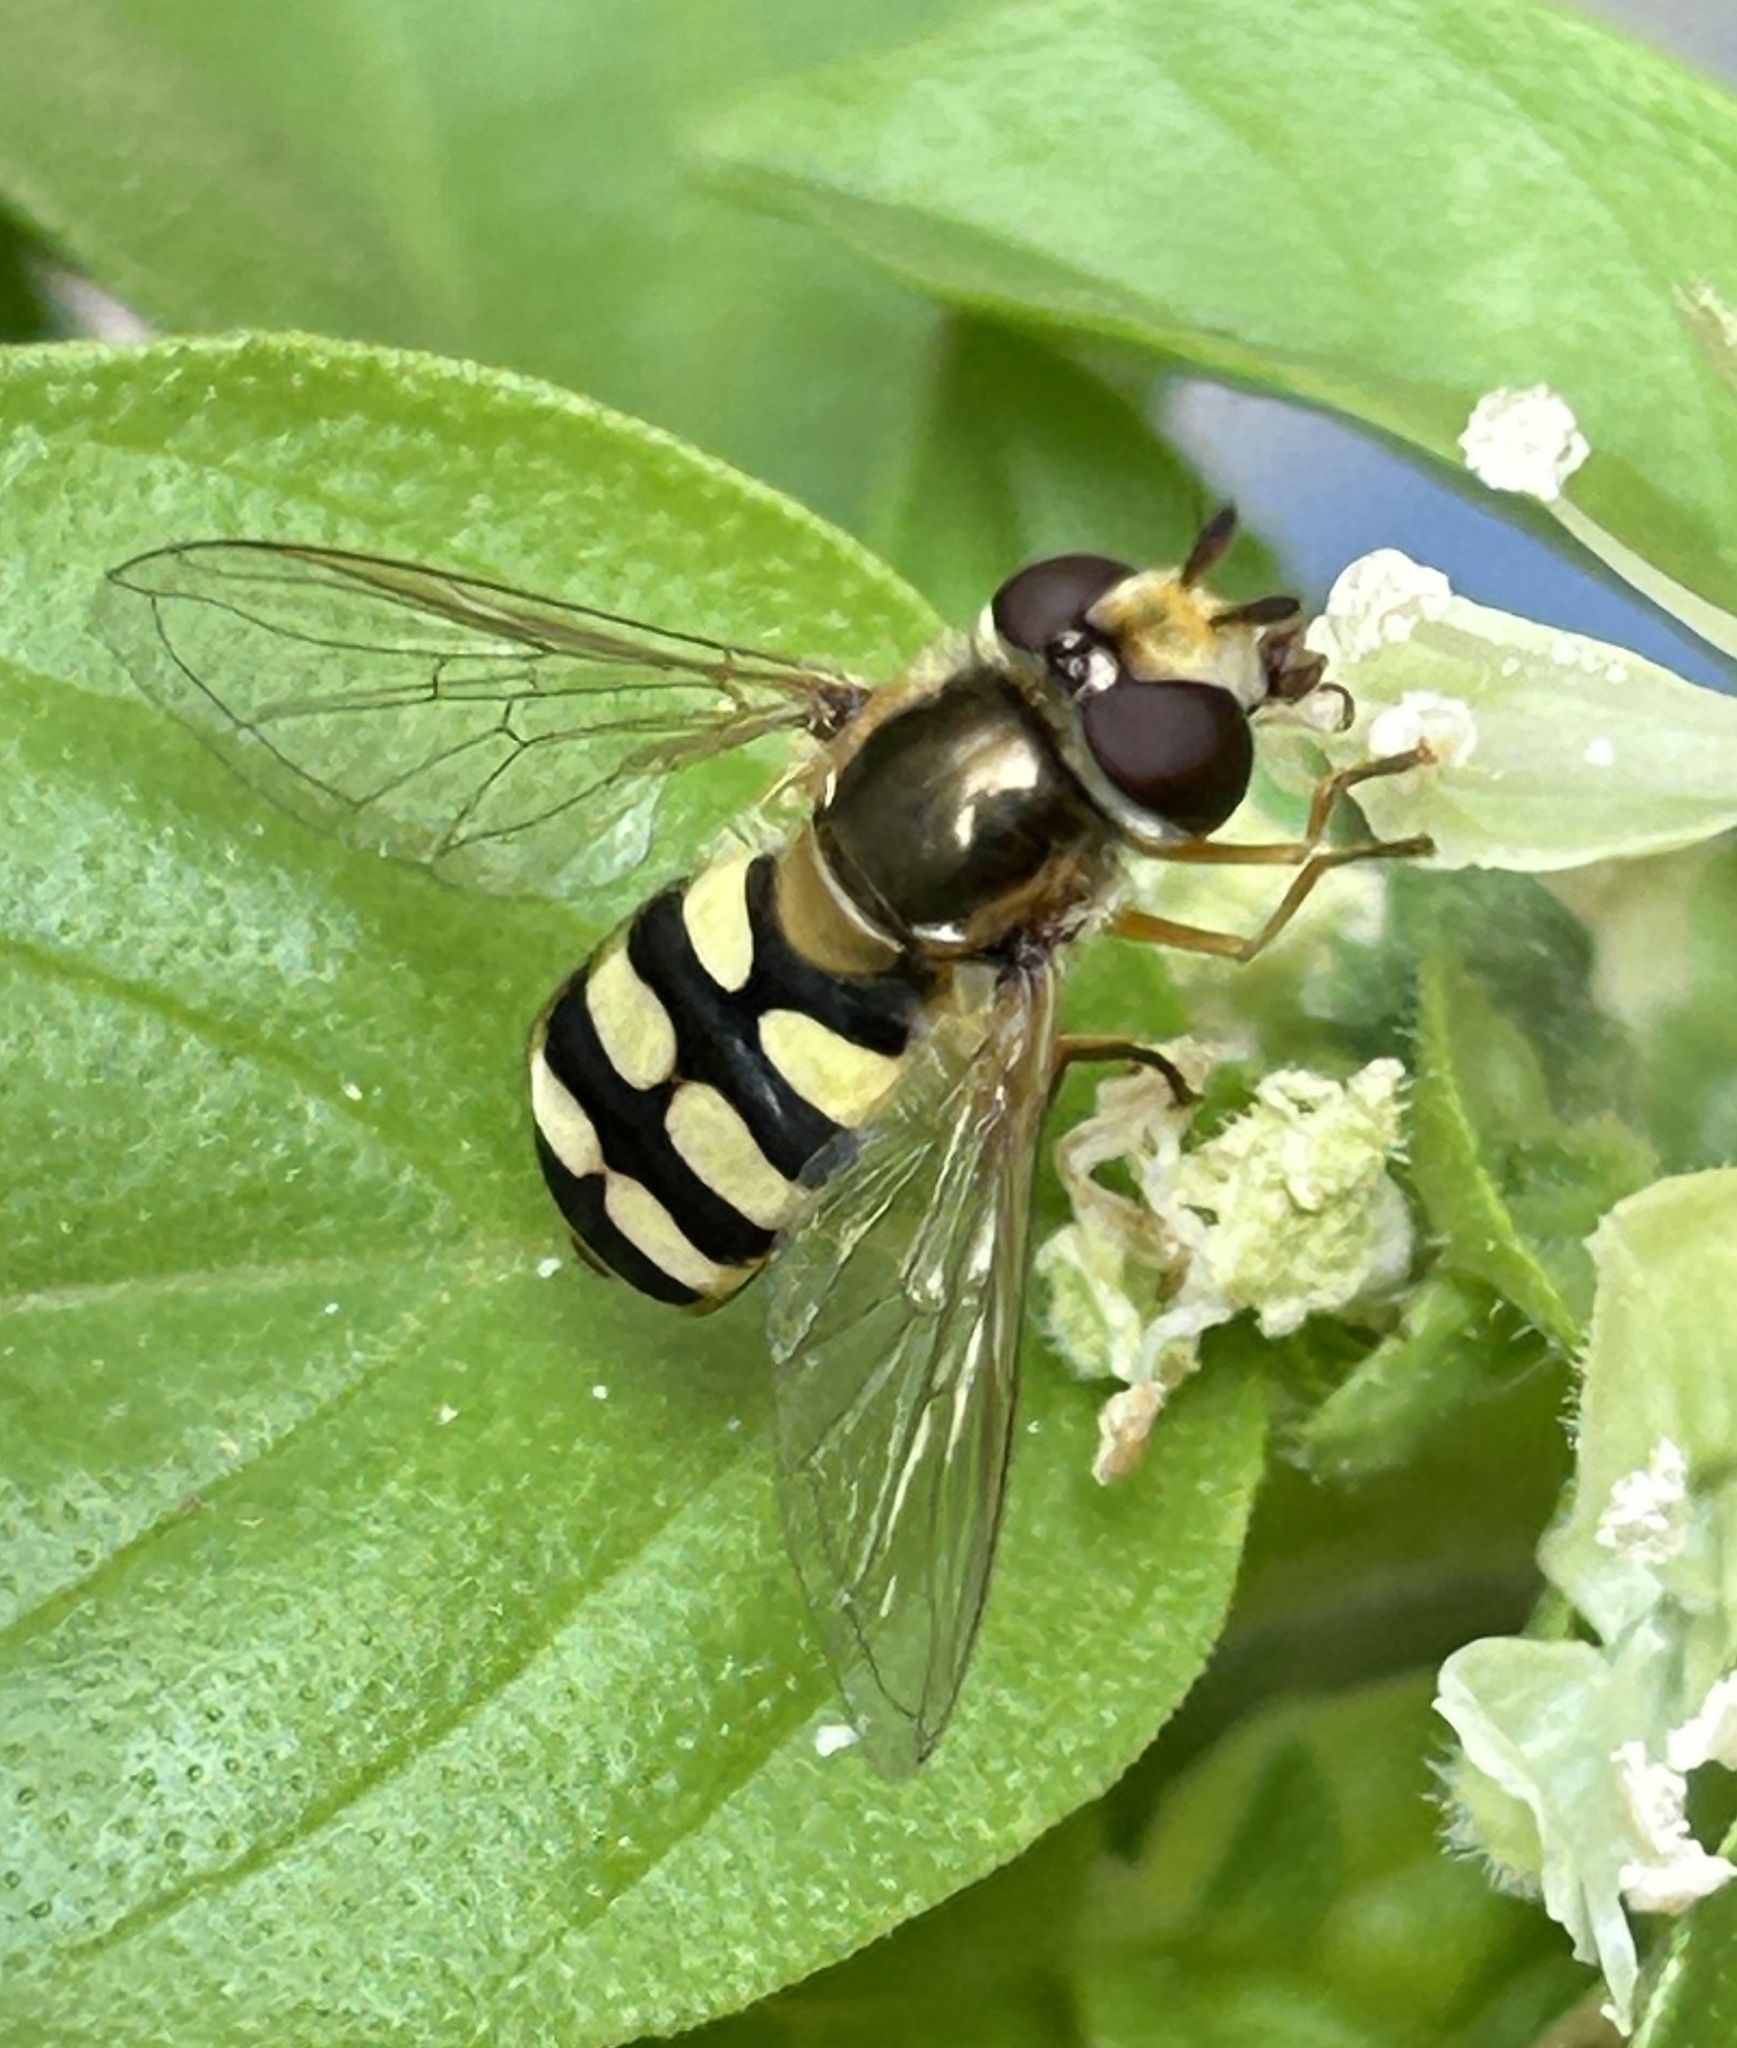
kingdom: Animalia
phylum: Arthropoda
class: Insecta
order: Diptera
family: Syrphidae
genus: Eupeodes
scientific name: Eupeodes corollae
